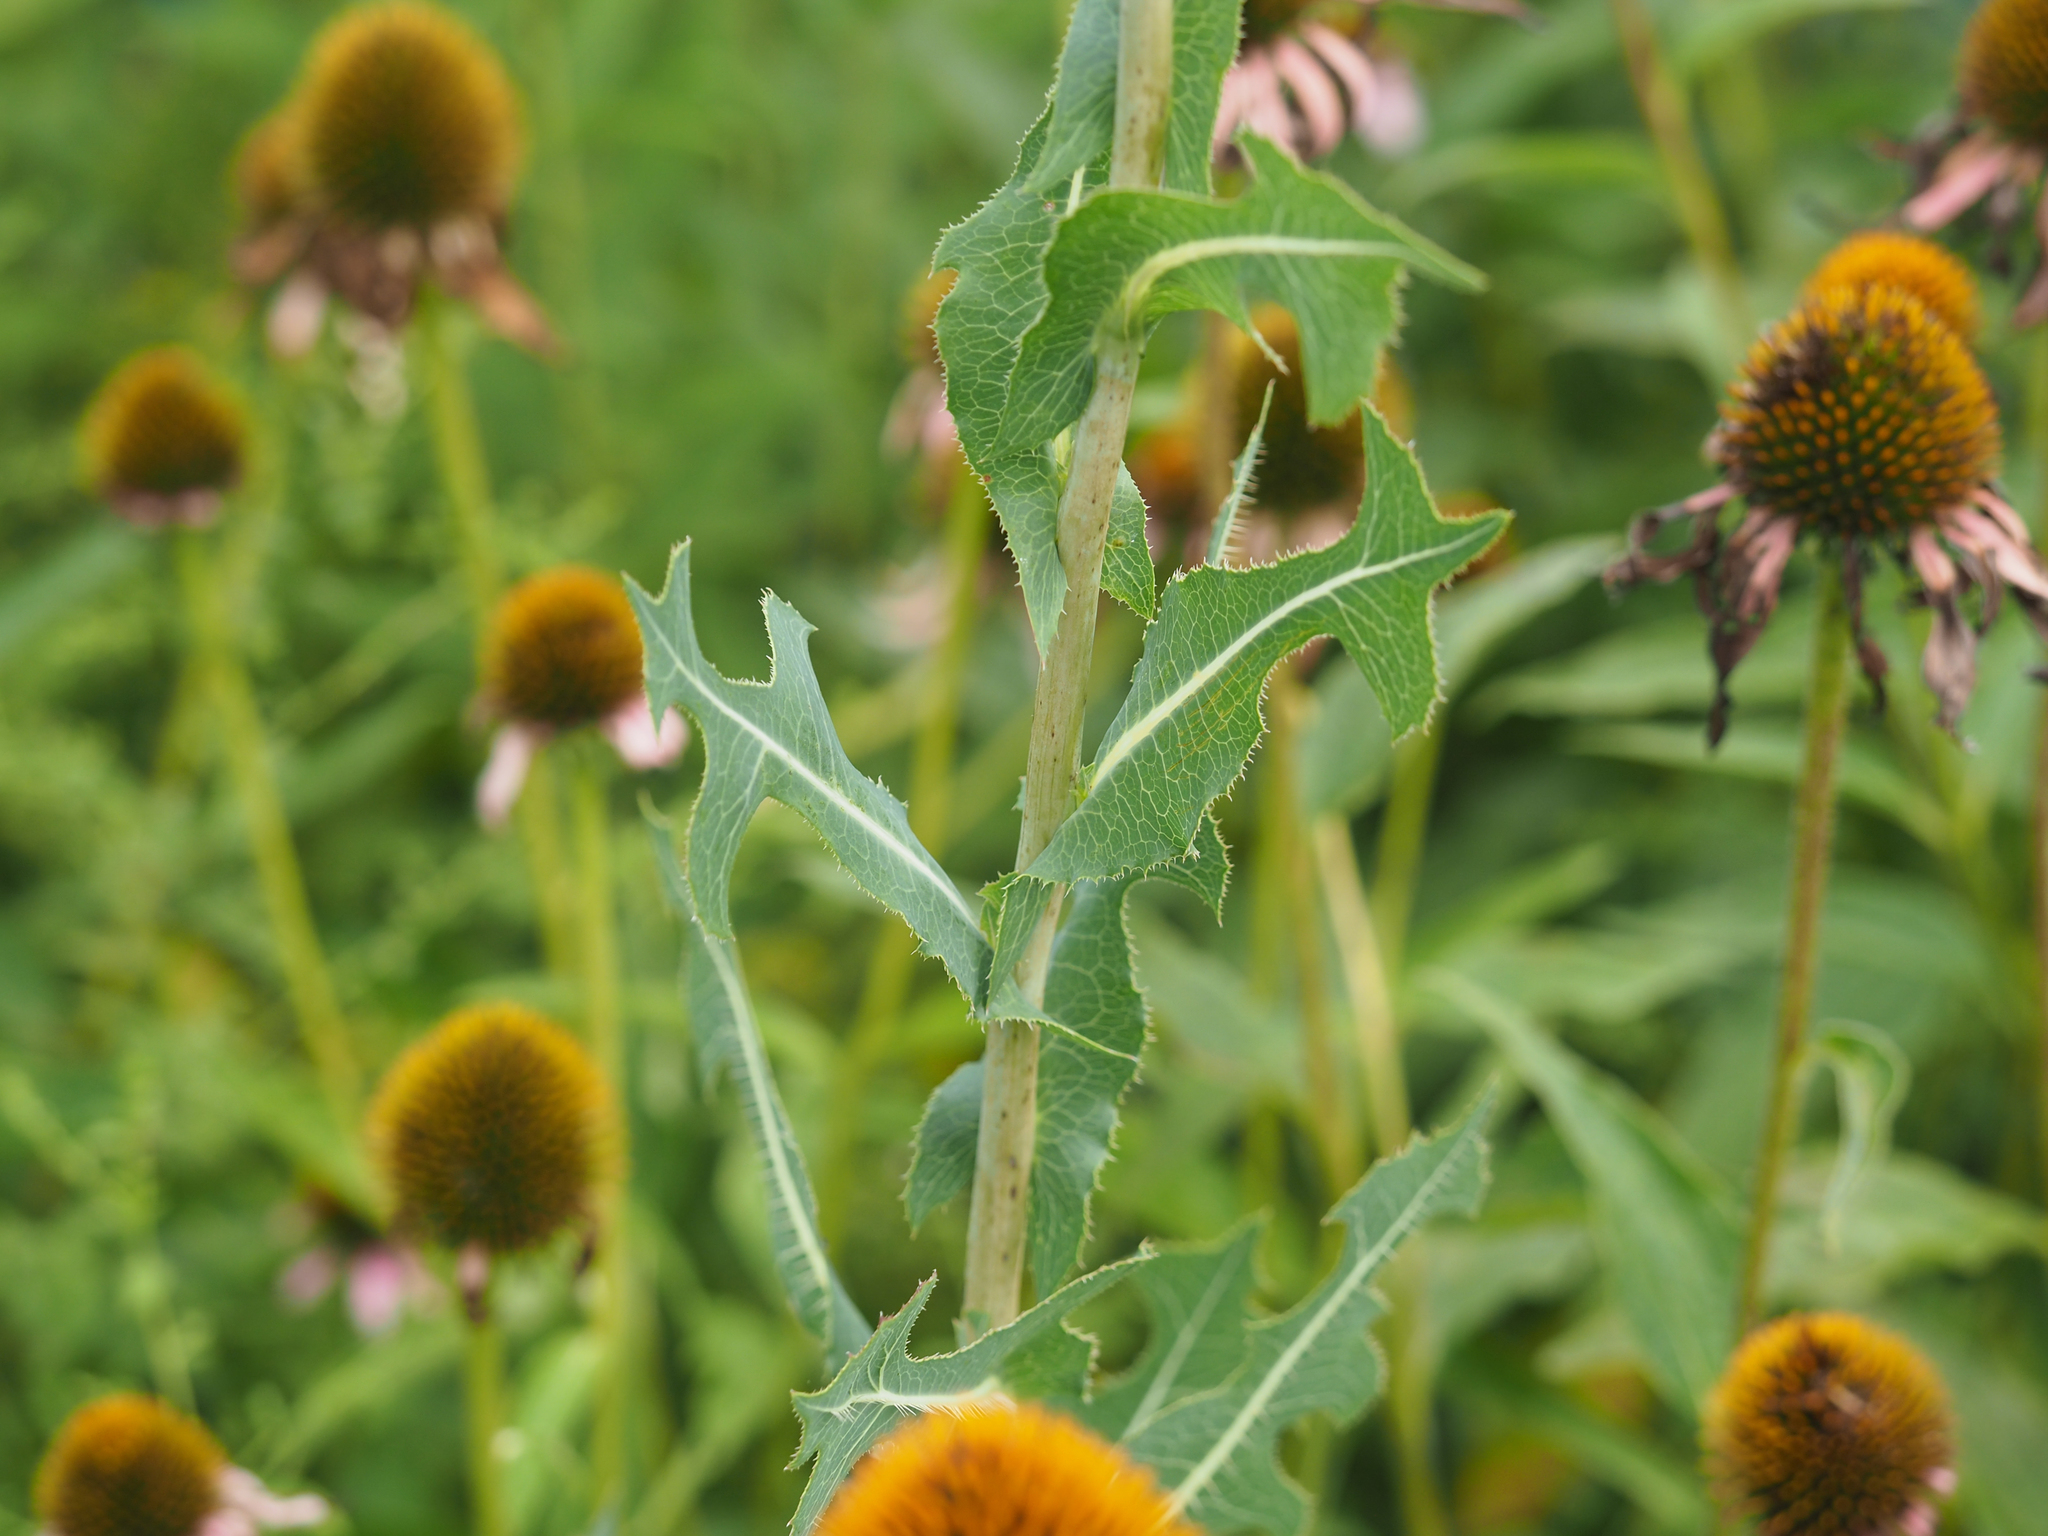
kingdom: Plantae
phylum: Tracheophyta
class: Magnoliopsida
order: Asterales
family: Asteraceae
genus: Lactuca
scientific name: Lactuca serriola
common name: Prickly lettuce
